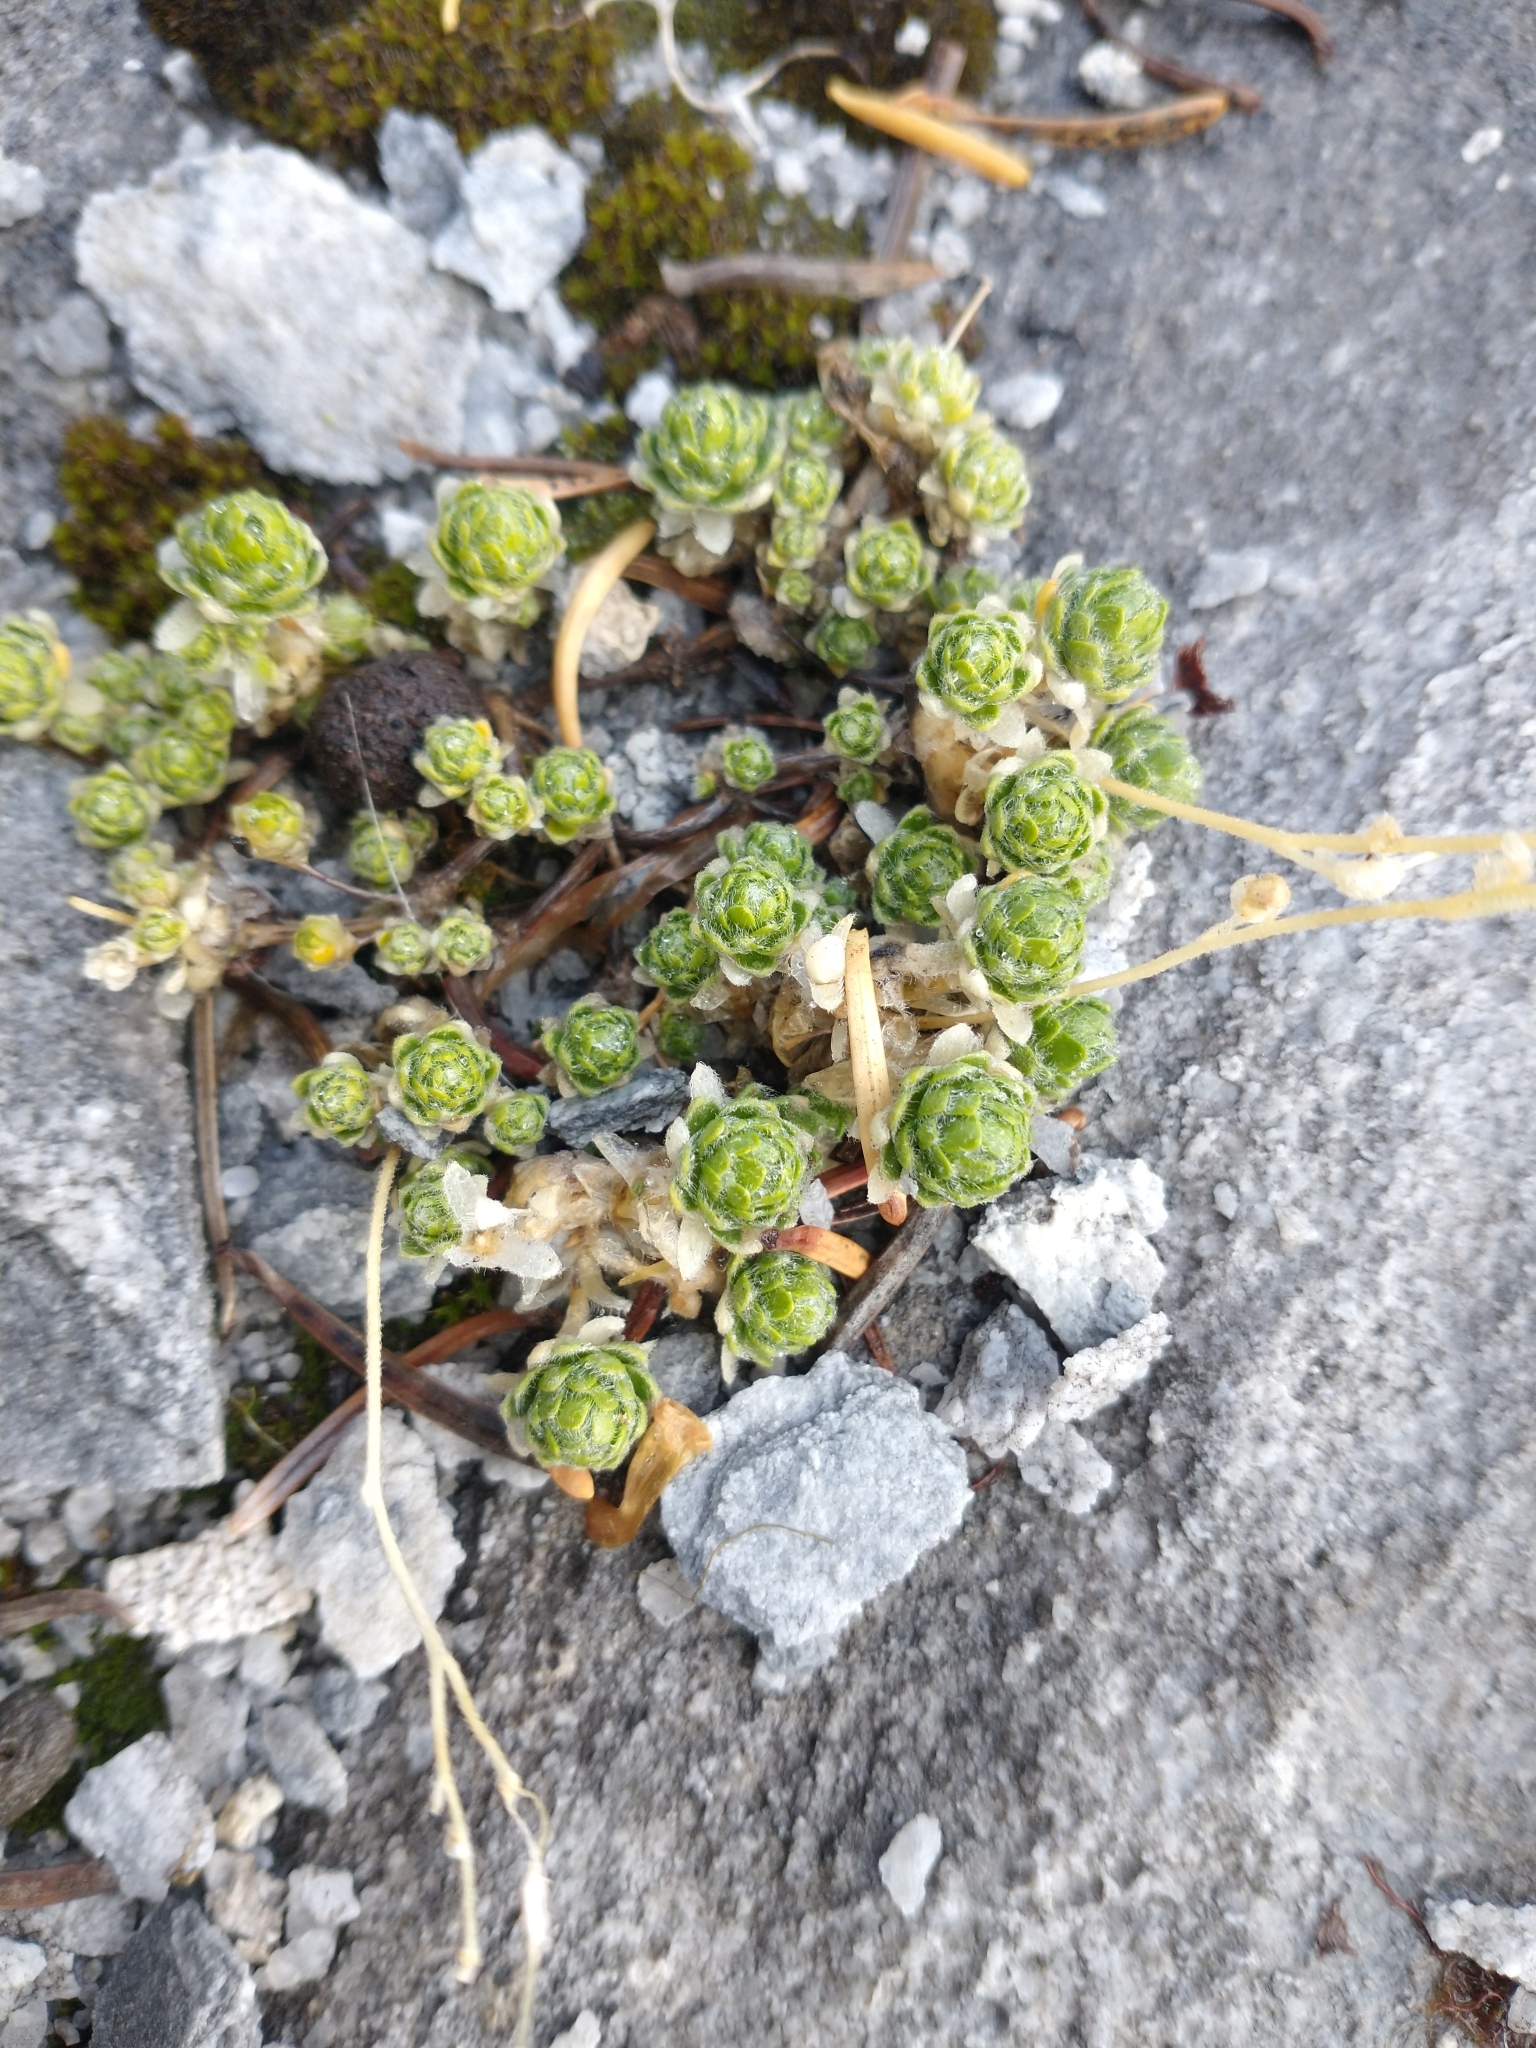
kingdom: Plantae
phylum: Tracheophyta
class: Magnoliopsida
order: Brassicales
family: Brassicaceae
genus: Draba
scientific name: Draba pterosperma
